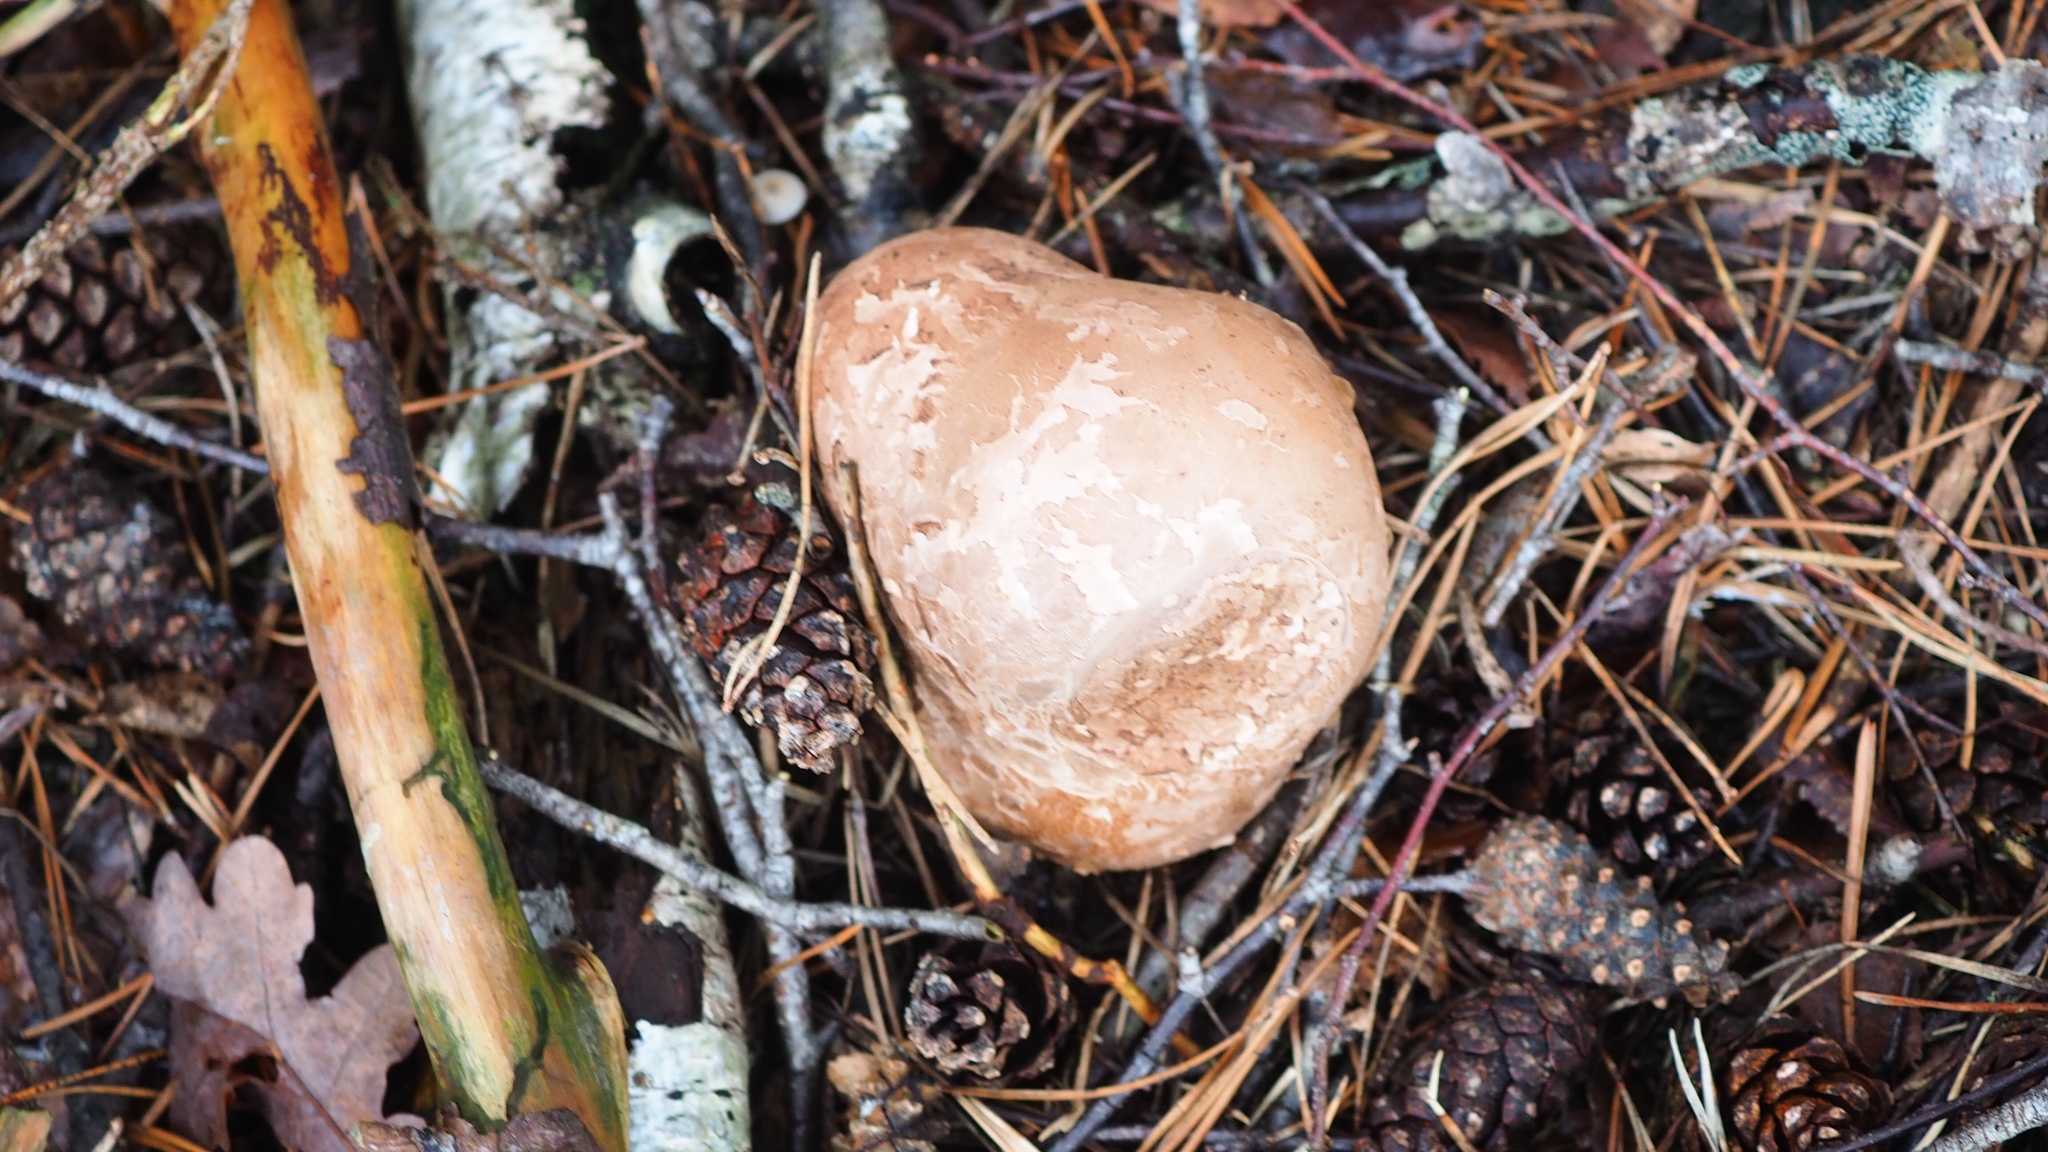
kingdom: Fungi
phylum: Basidiomycota
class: Agaricomycetes
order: Polyporales
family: Fomitopsidaceae
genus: Fomitopsis
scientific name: Fomitopsis betulina
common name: Birch polypore
